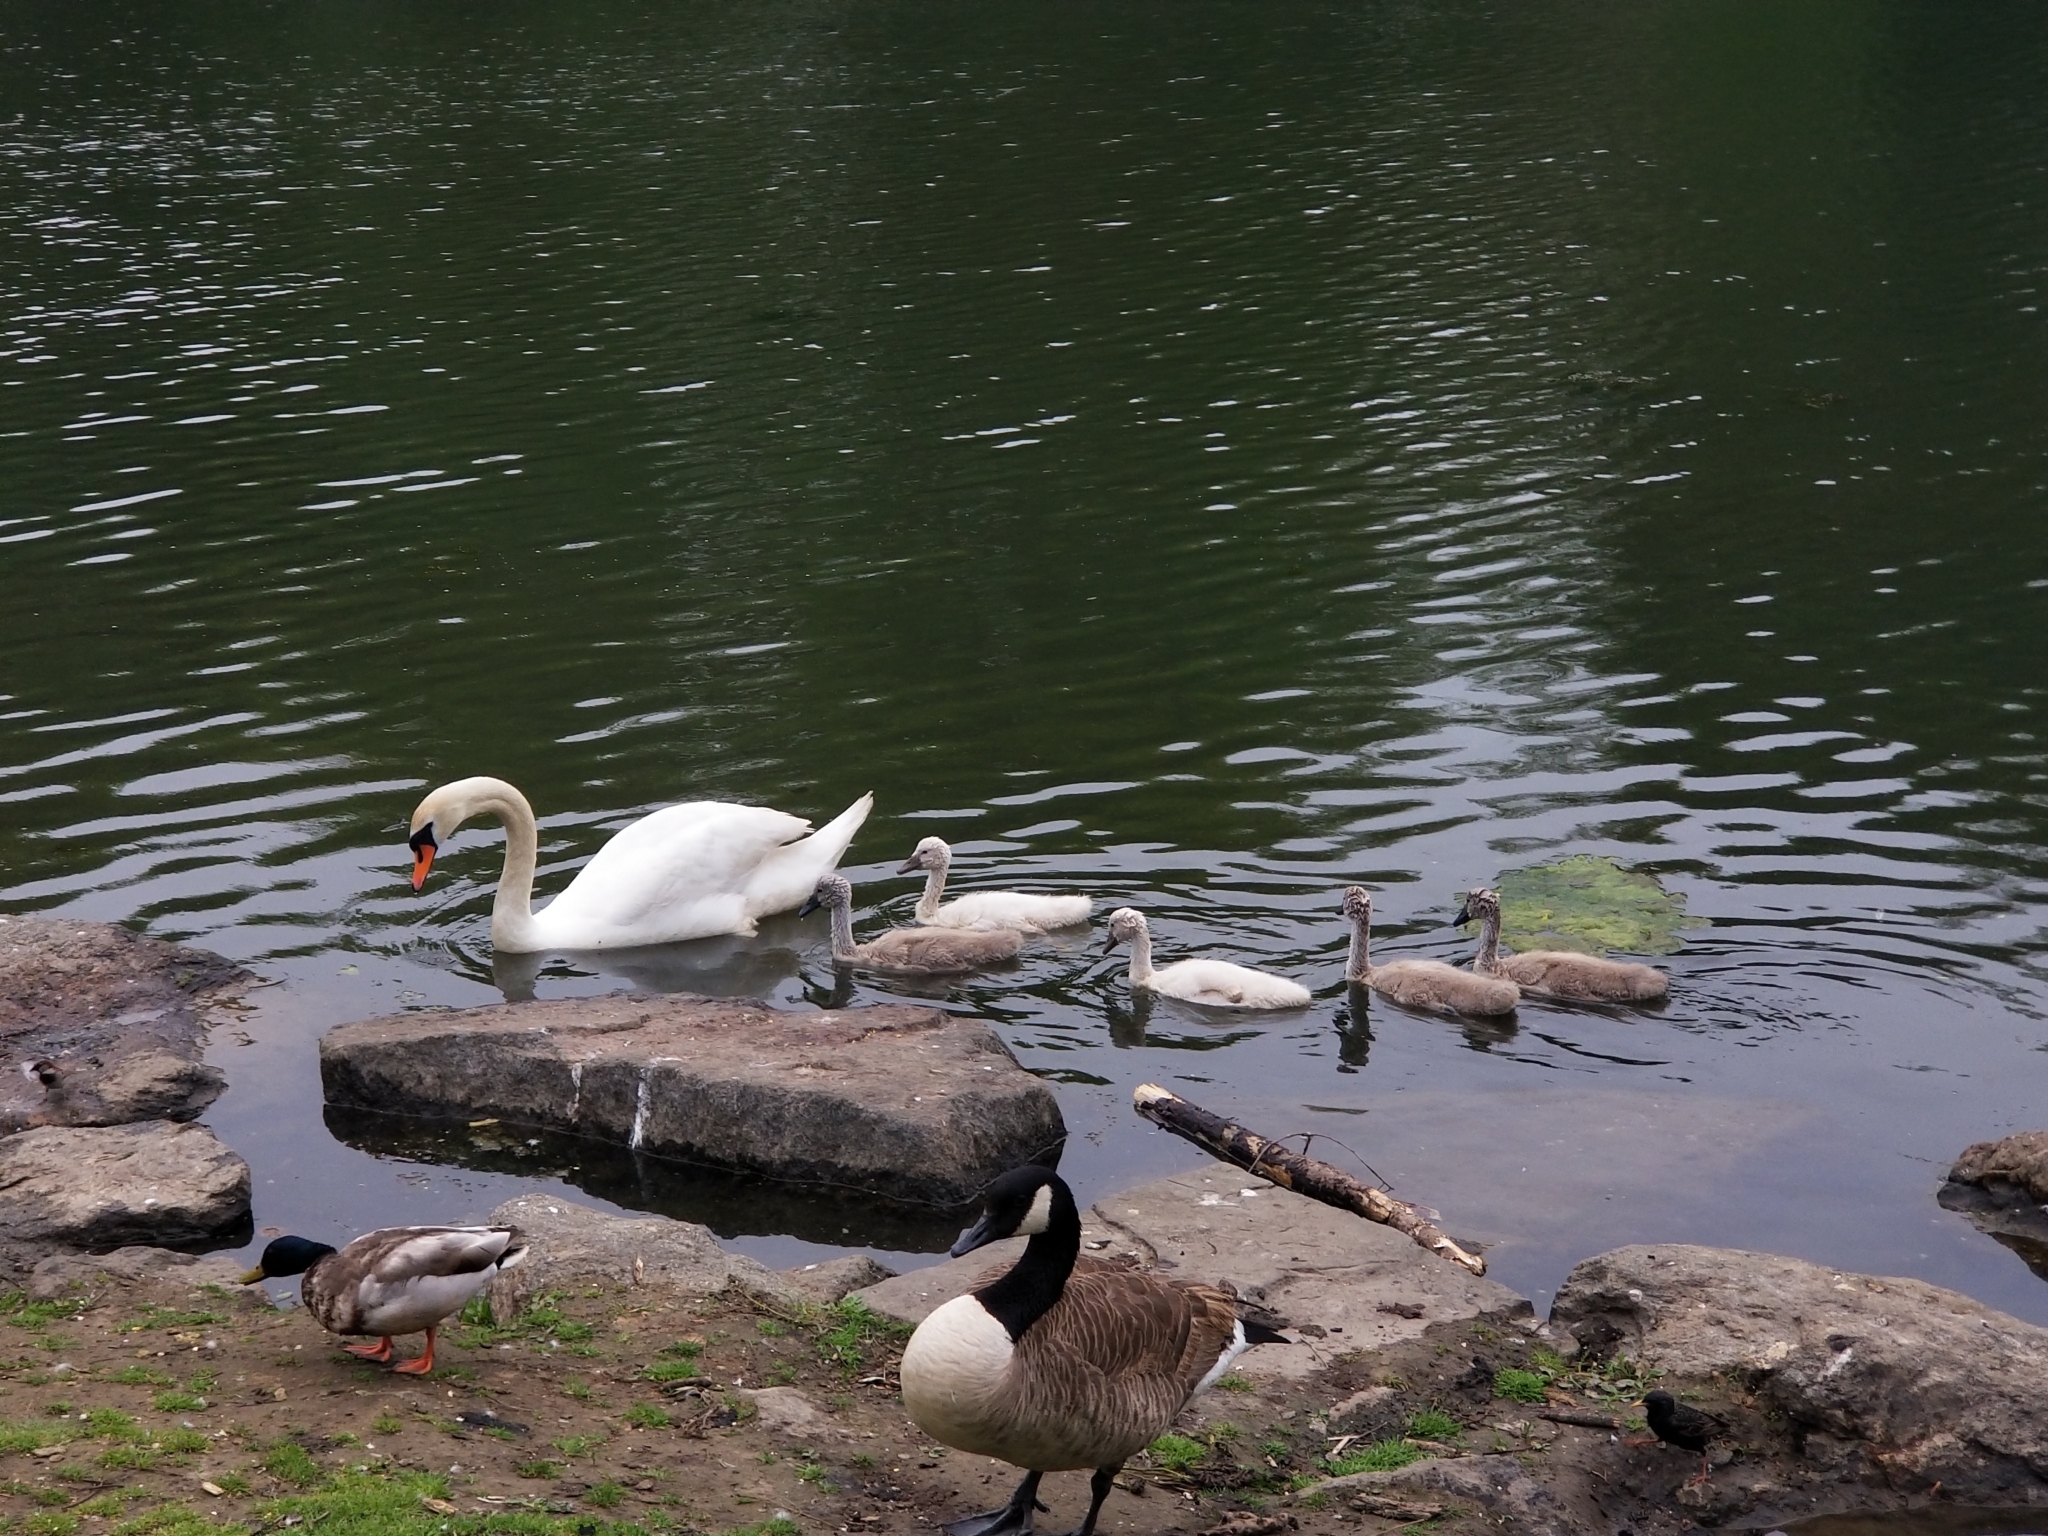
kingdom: Animalia
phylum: Chordata
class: Aves
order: Anseriformes
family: Anatidae
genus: Cygnus
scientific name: Cygnus olor
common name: Mute swan
